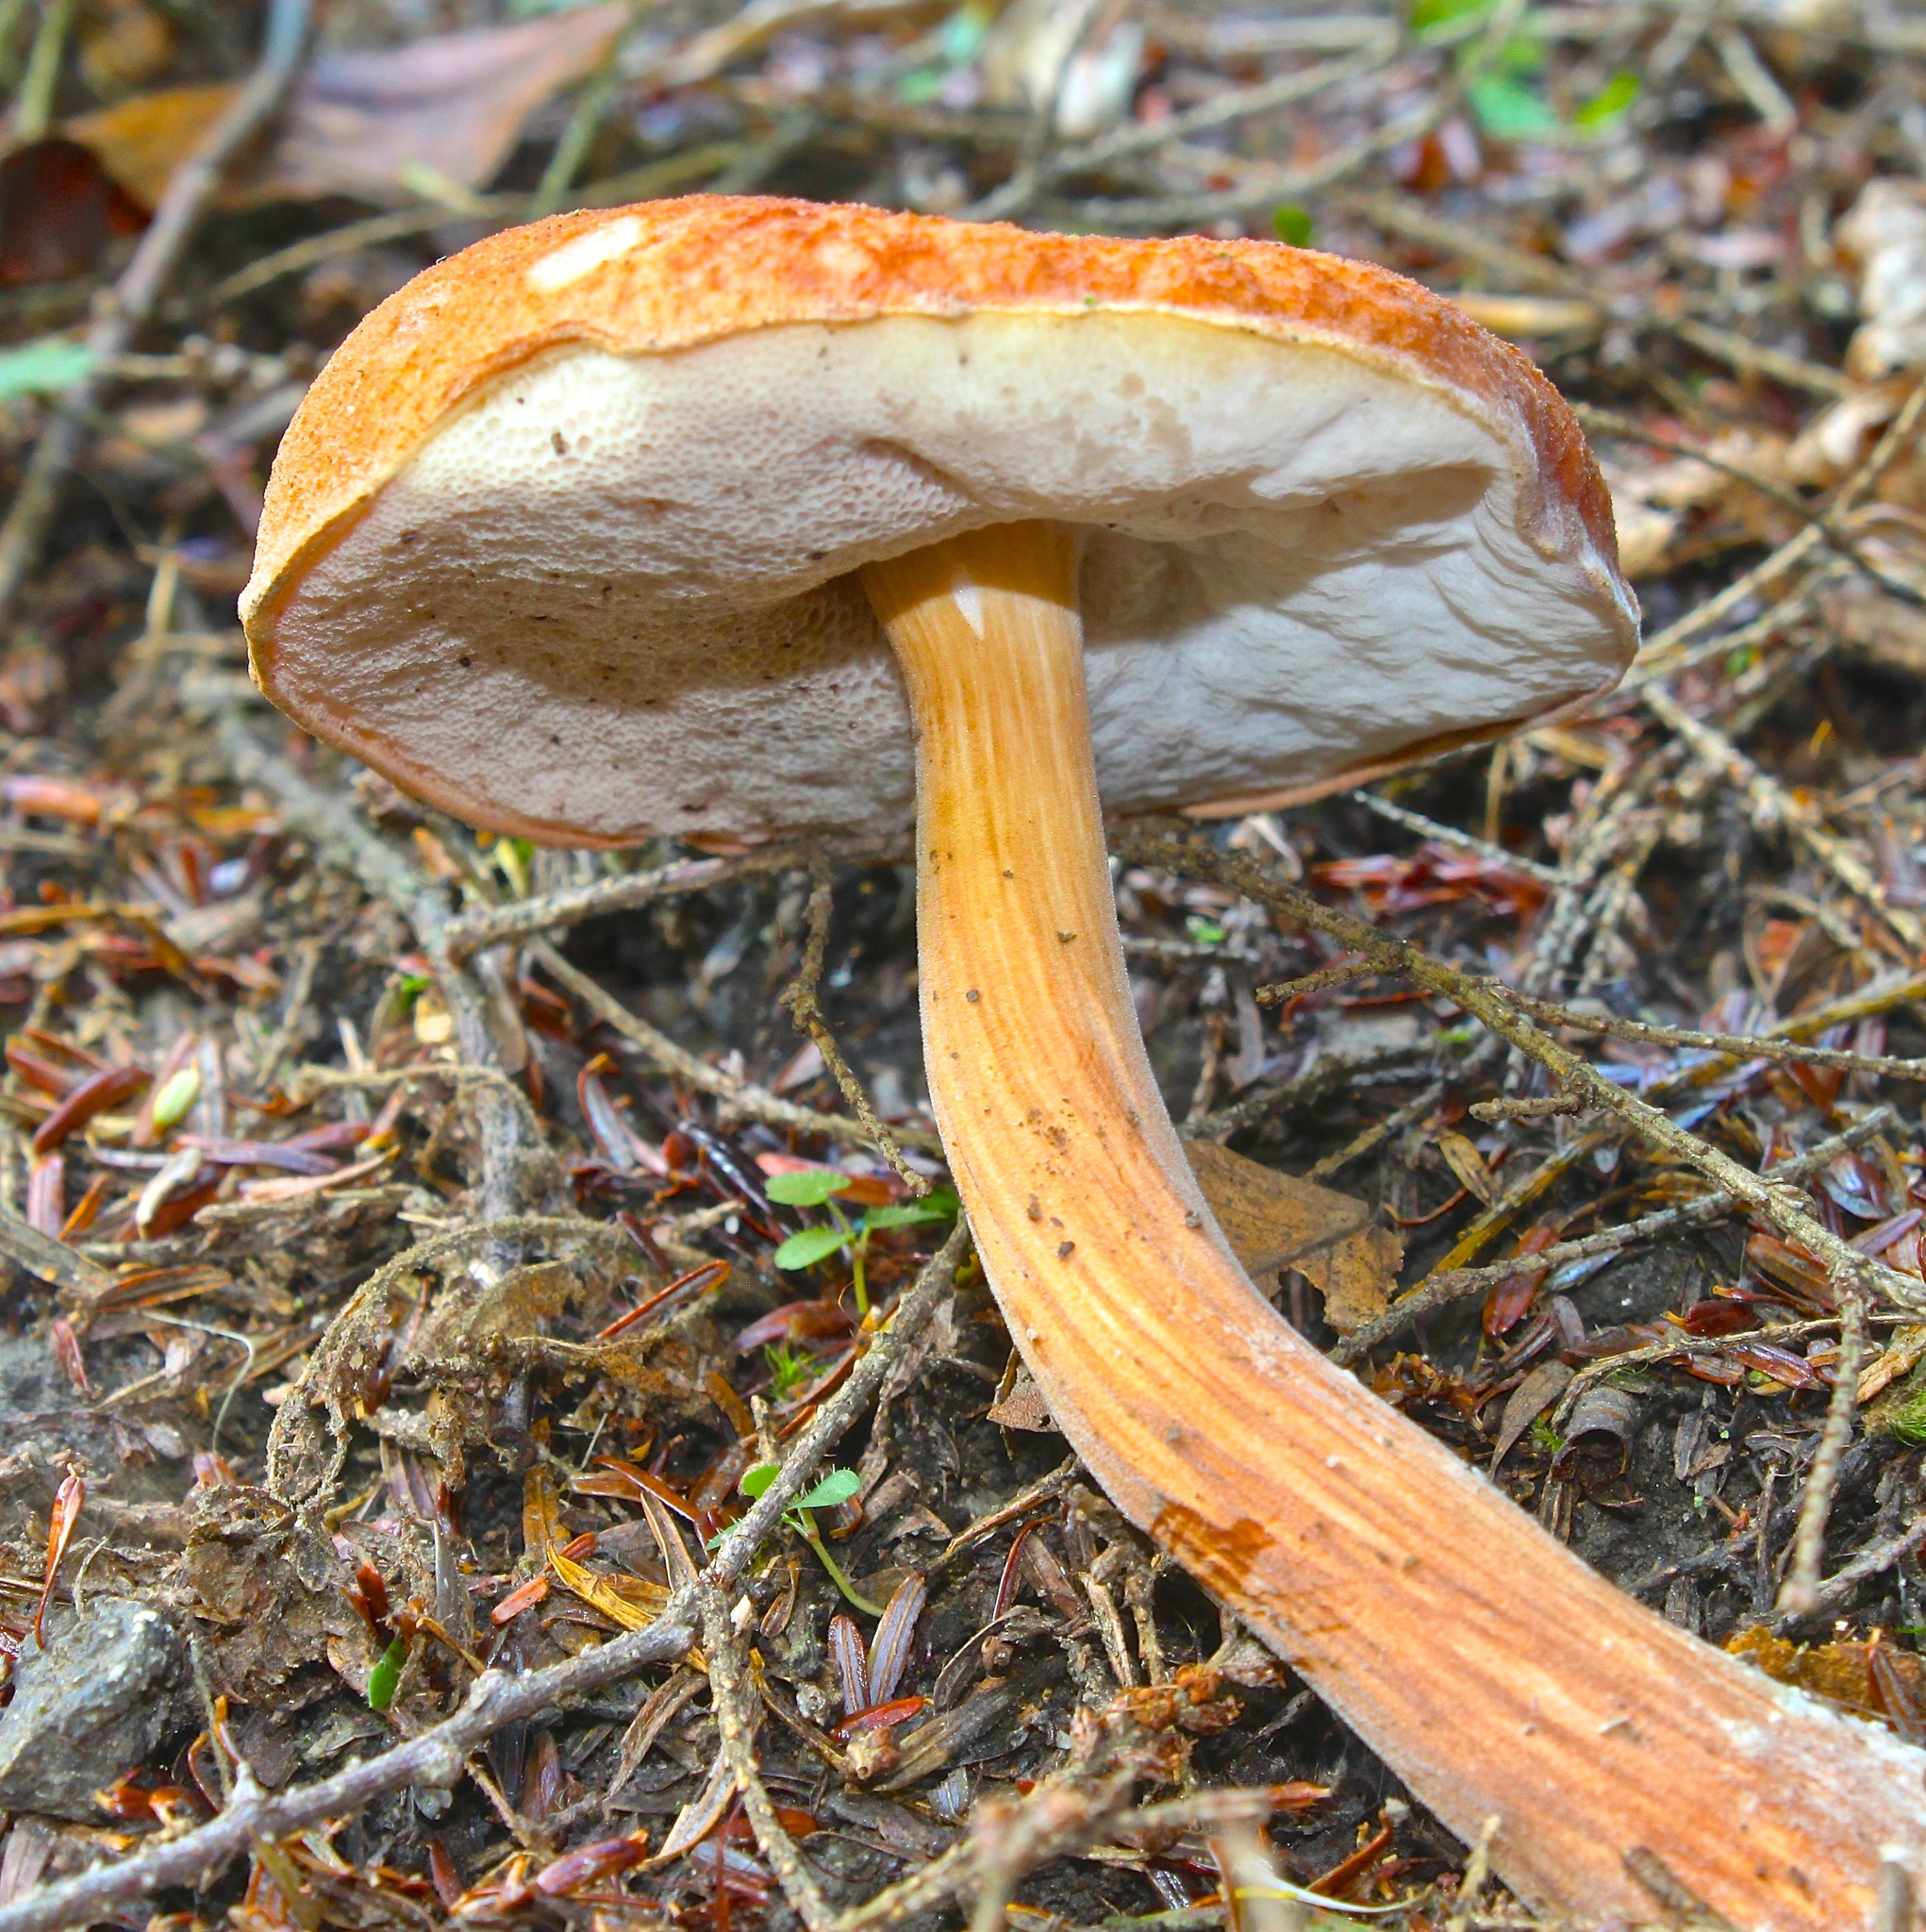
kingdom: Fungi
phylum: Basidiomycota
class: Agaricomycetes
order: Boletales
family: Boletaceae
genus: Austroboletus
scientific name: Austroboletus gracilis
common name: Graceful bolete
